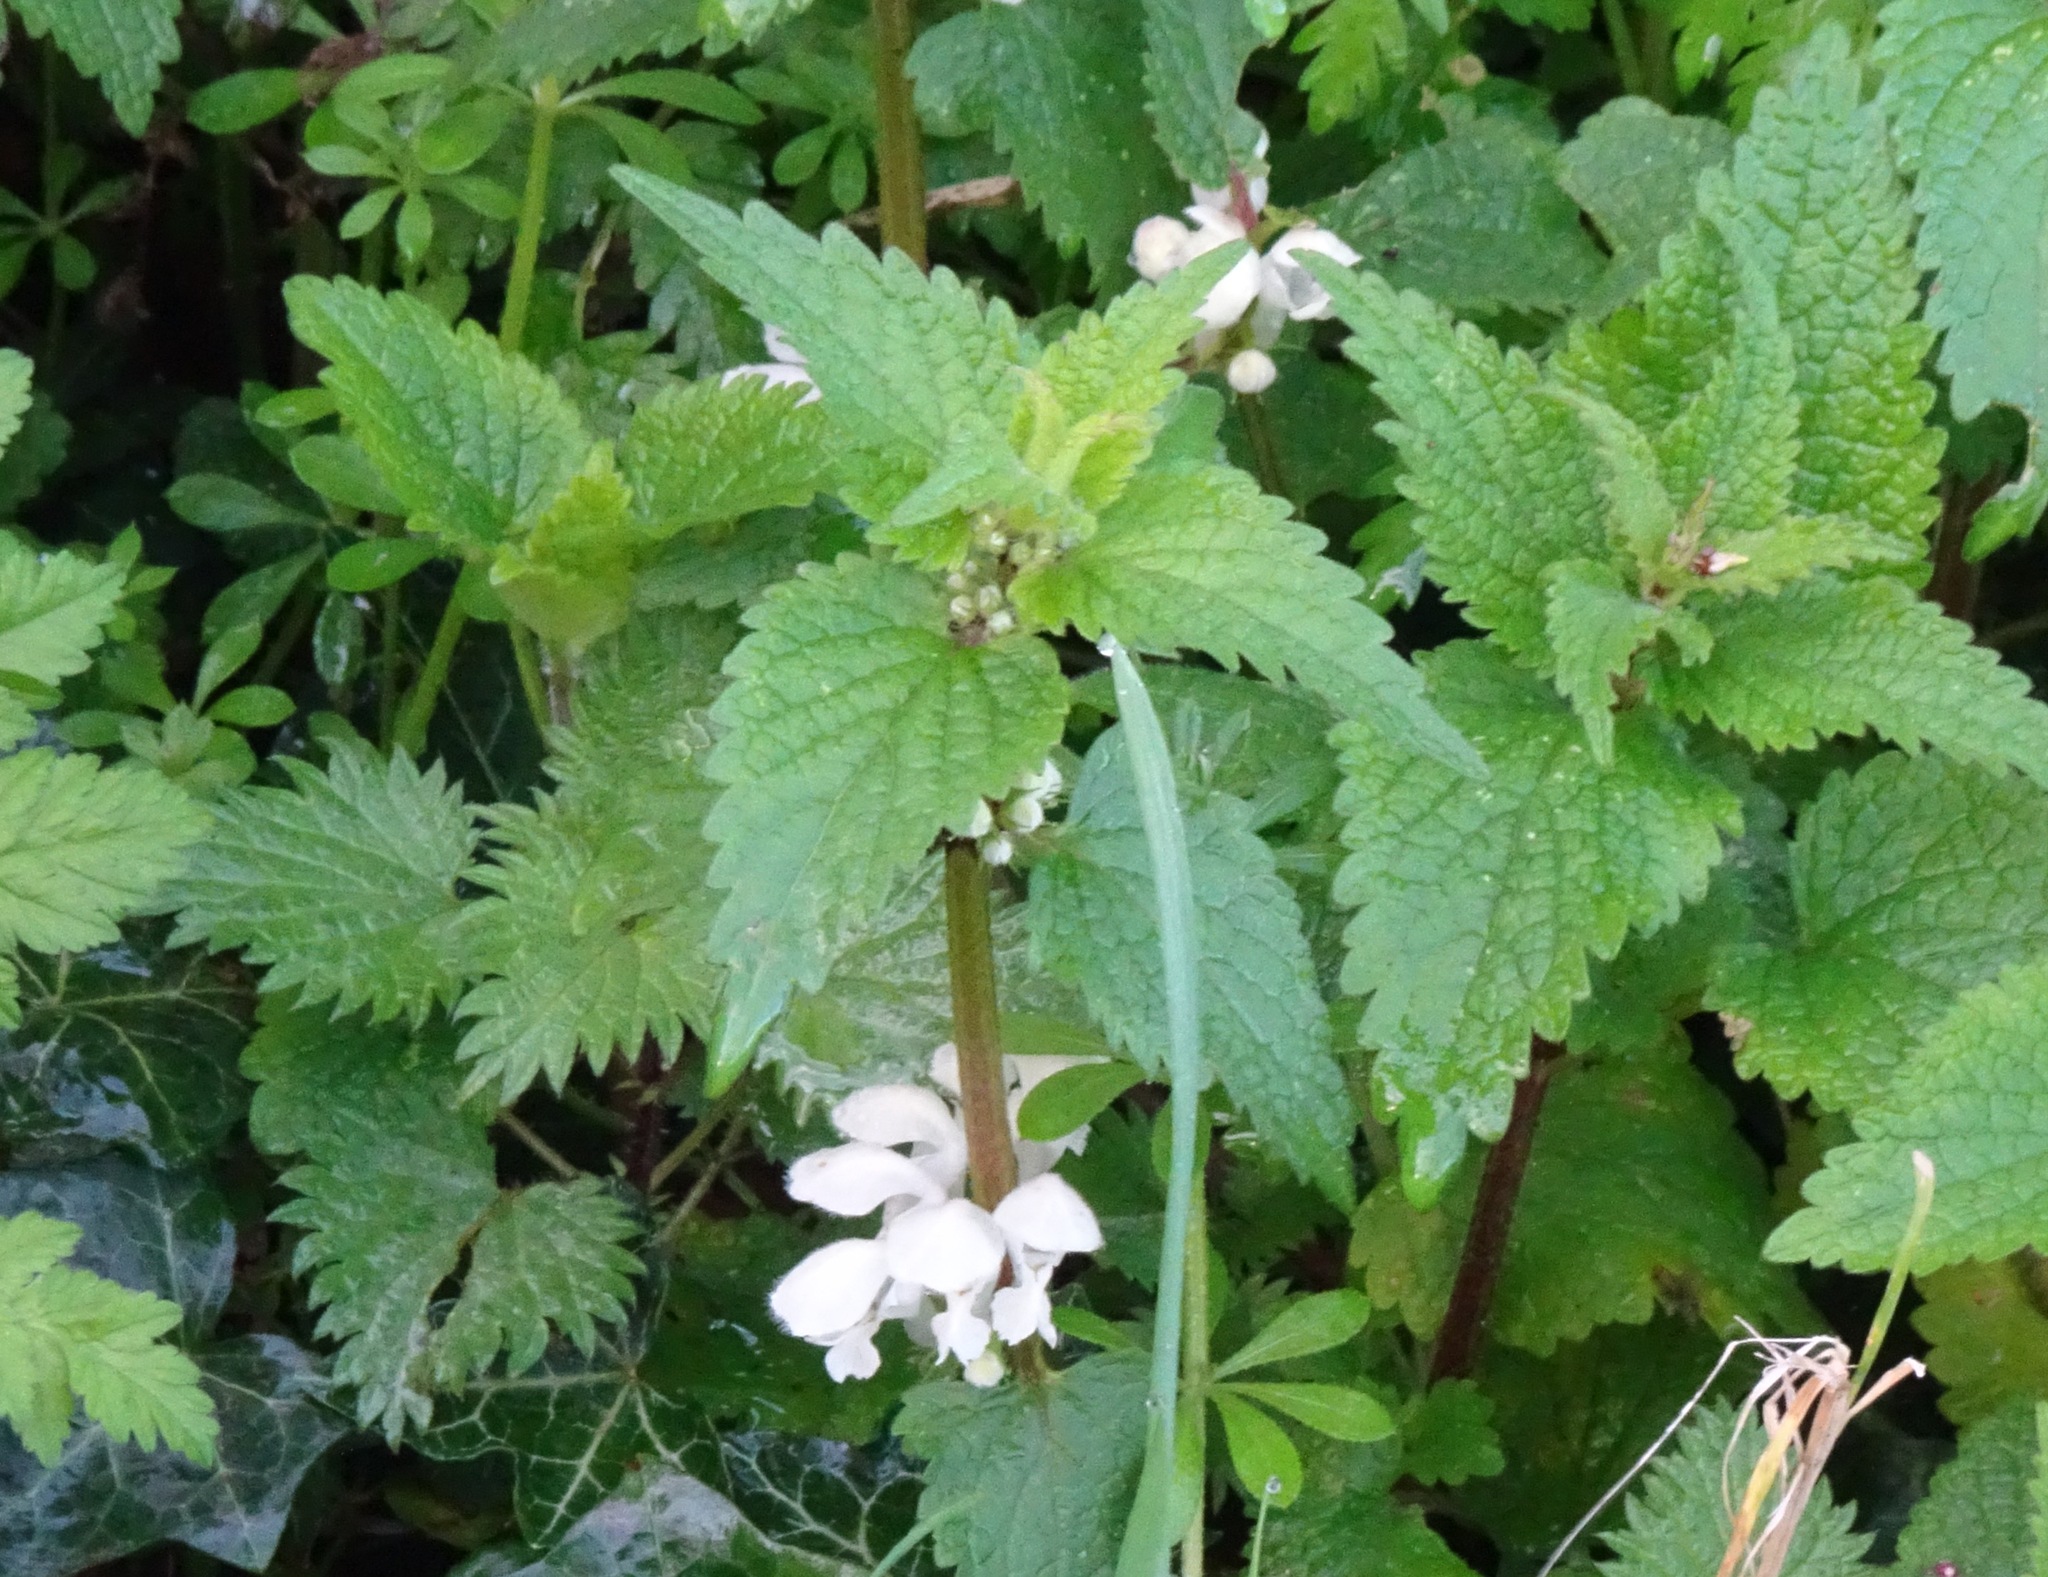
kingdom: Plantae
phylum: Tracheophyta
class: Magnoliopsida
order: Lamiales
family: Lamiaceae
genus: Lamium
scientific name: Lamium album
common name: White dead-nettle
